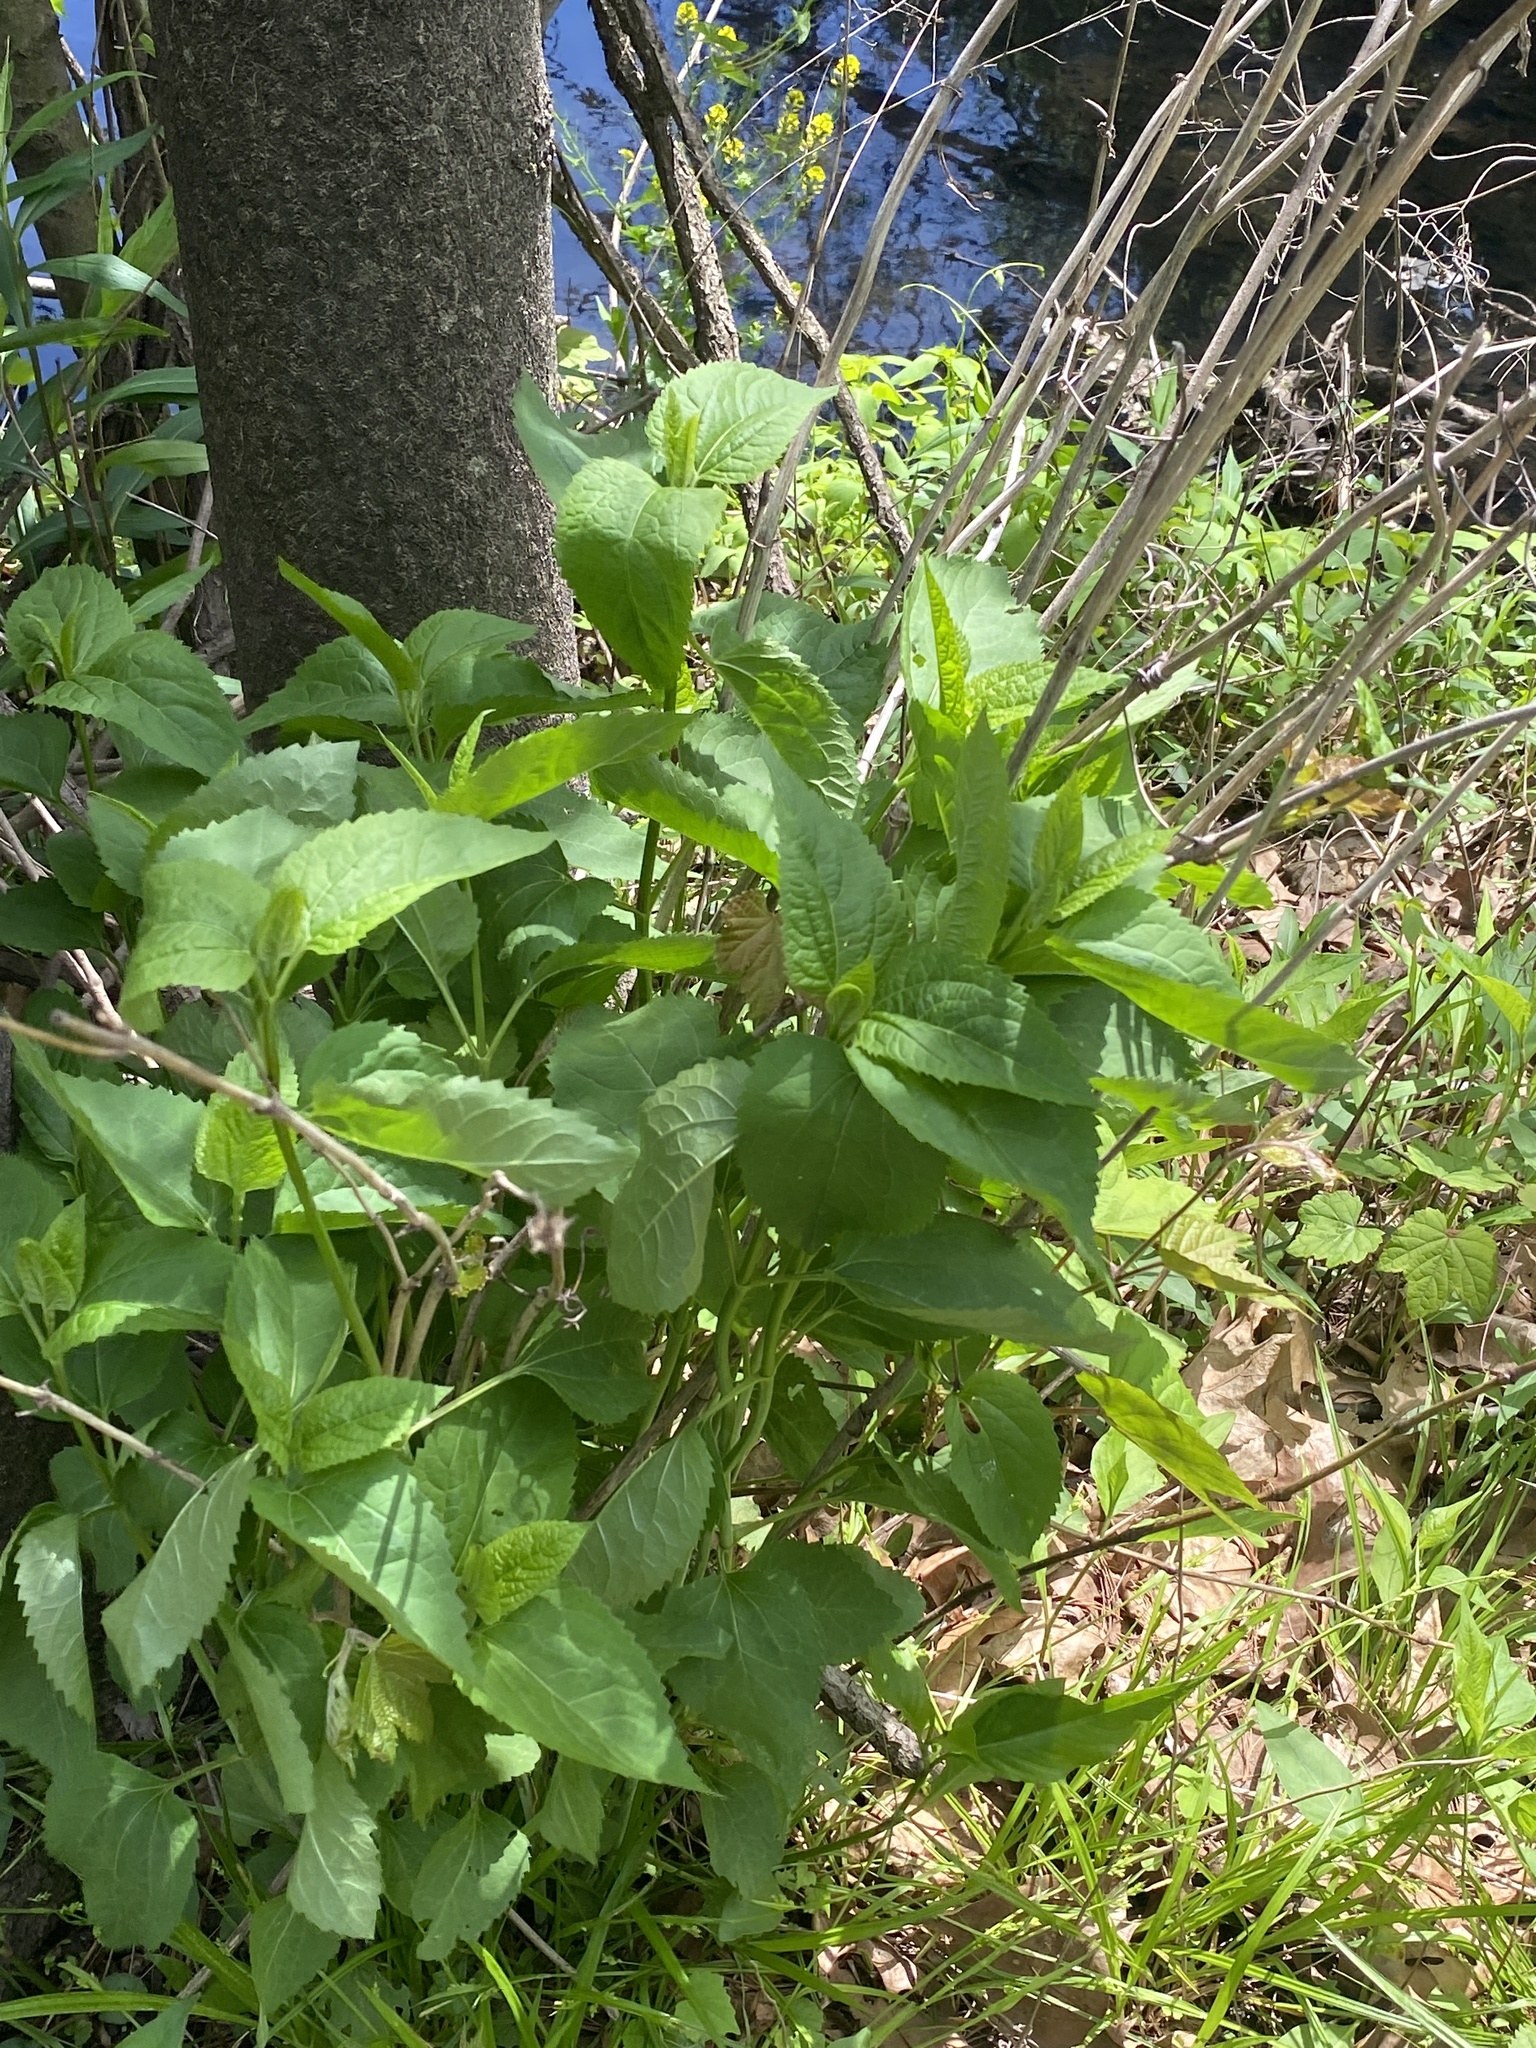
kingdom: Plantae
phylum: Tracheophyta
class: Magnoliopsida
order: Asterales
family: Asteraceae
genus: Heliopsis
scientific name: Heliopsis helianthoides
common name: False sunflower
